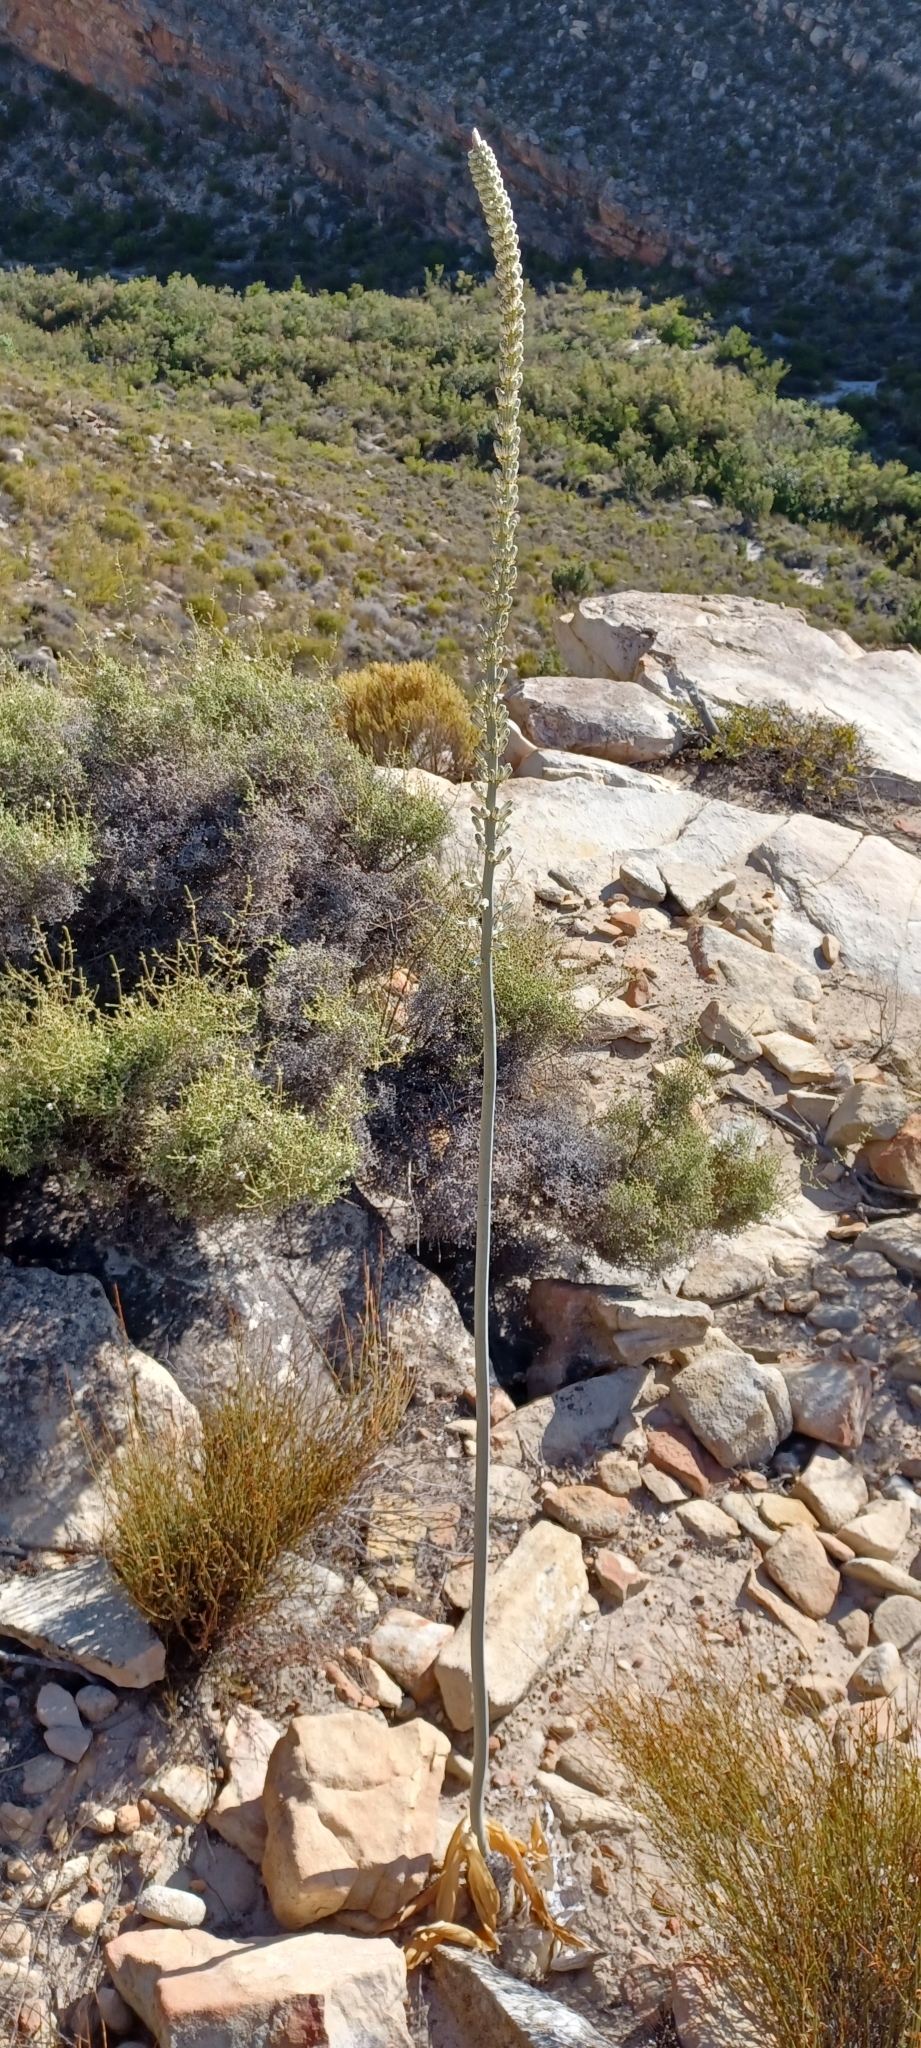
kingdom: Plantae
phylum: Tracheophyta
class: Liliopsida
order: Asparagales
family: Asparagaceae
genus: Drimia
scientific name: Drimia capensis
